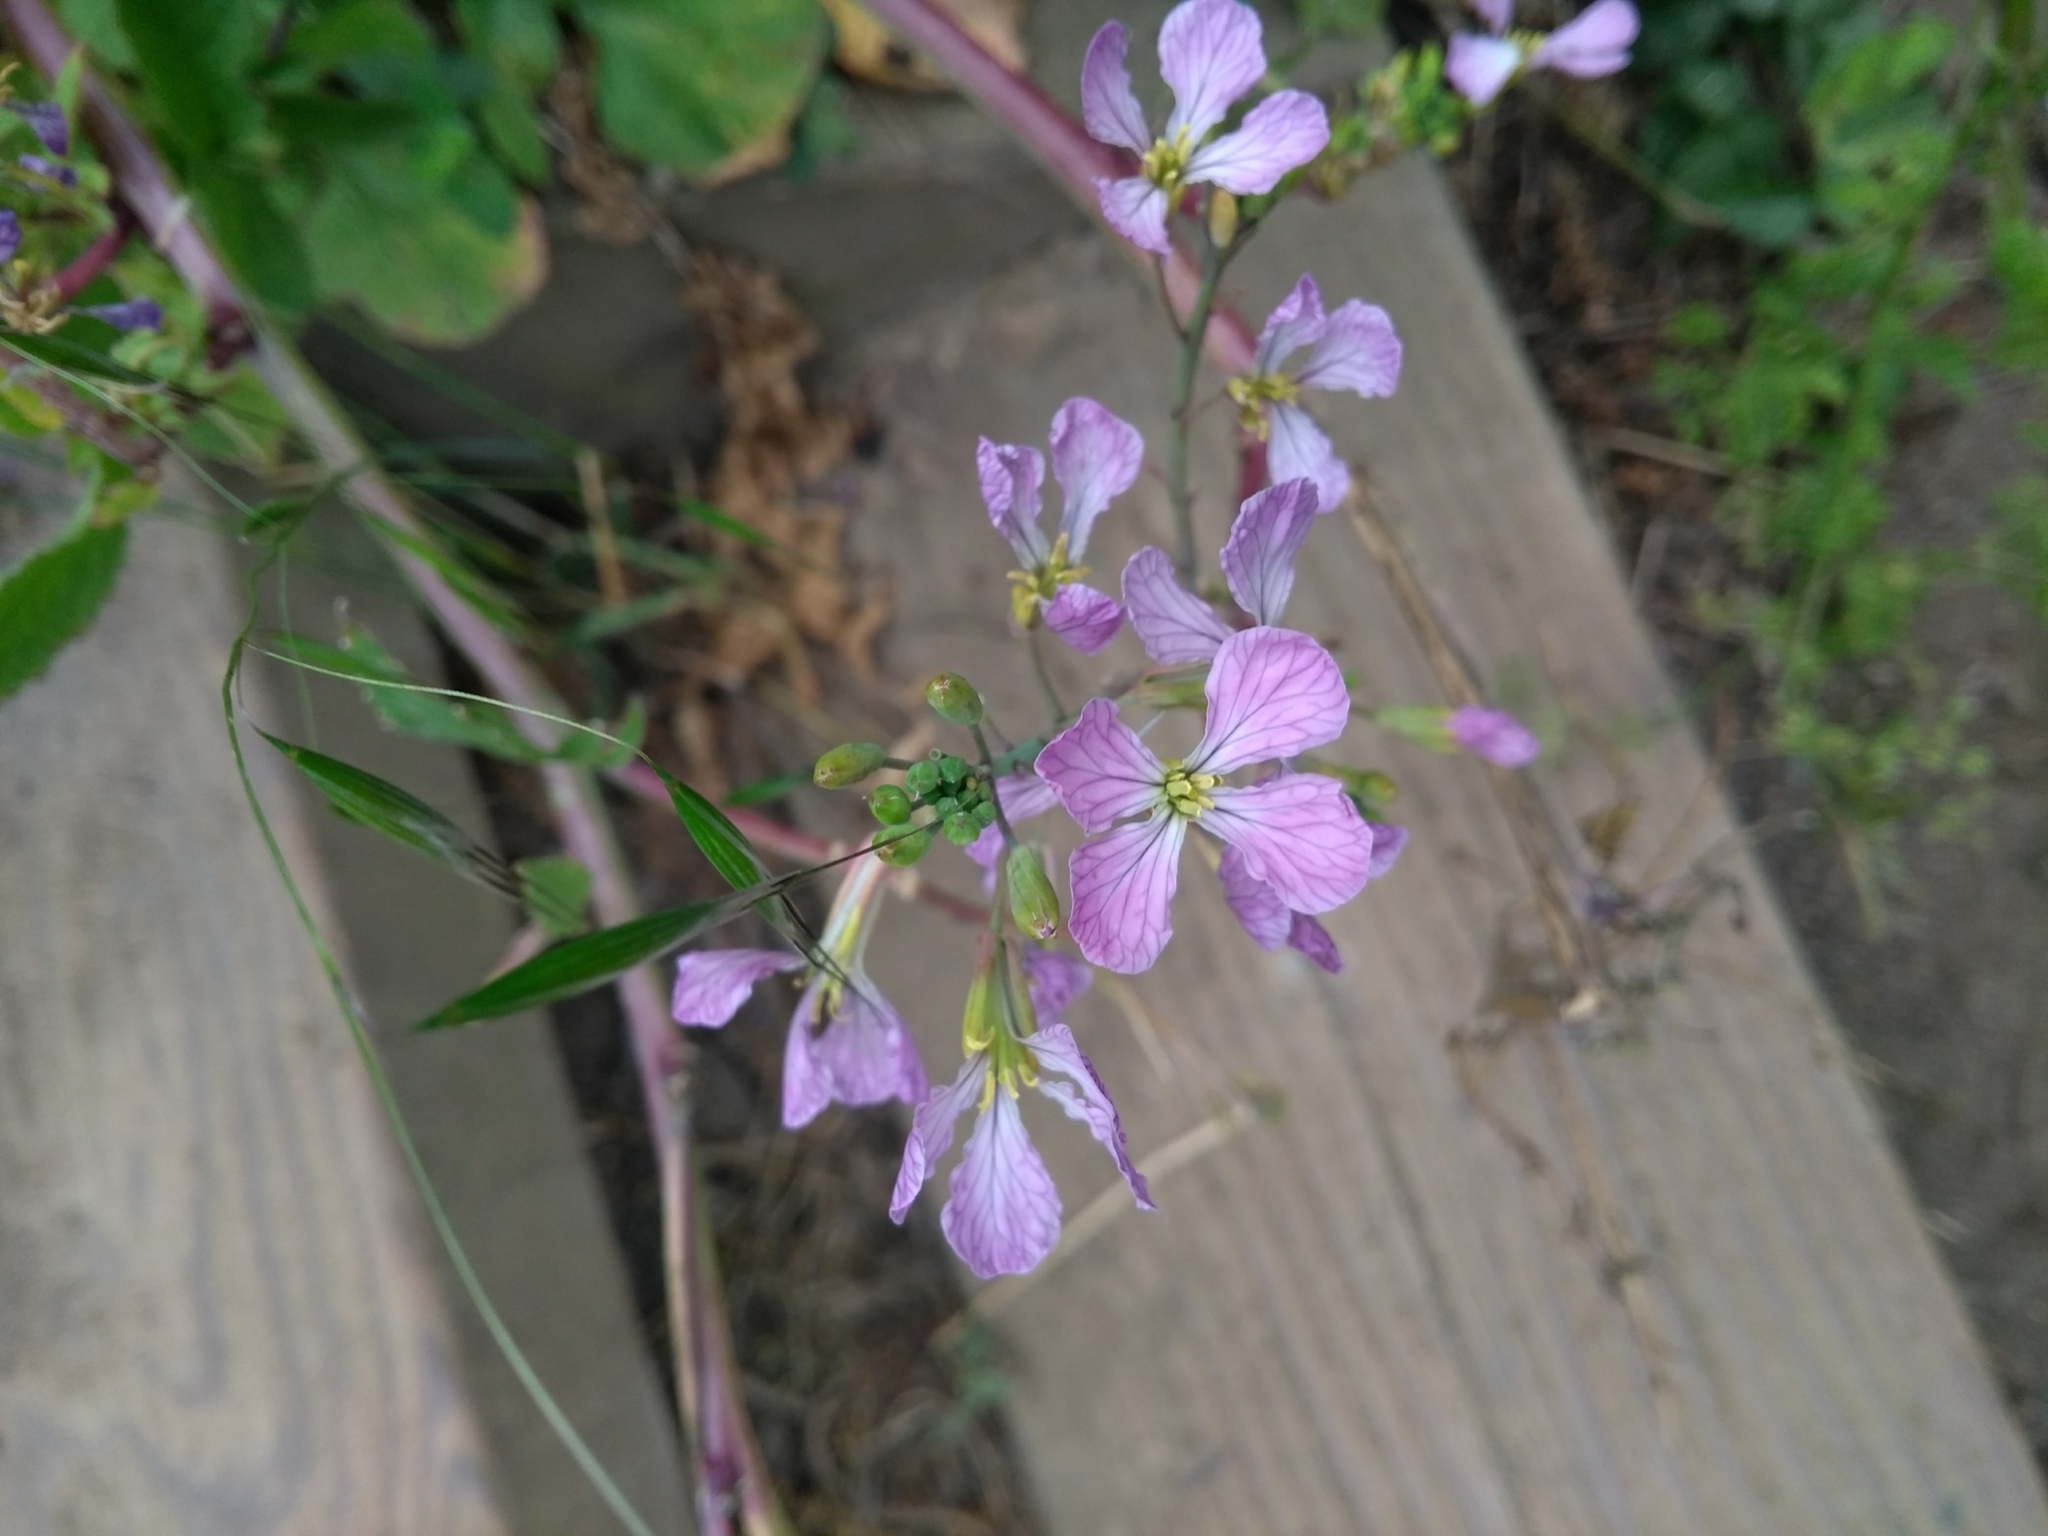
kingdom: Plantae
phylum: Tracheophyta
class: Magnoliopsida
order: Brassicales
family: Brassicaceae
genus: Raphanus
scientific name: Raphanus sativus
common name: Cultivated radish
